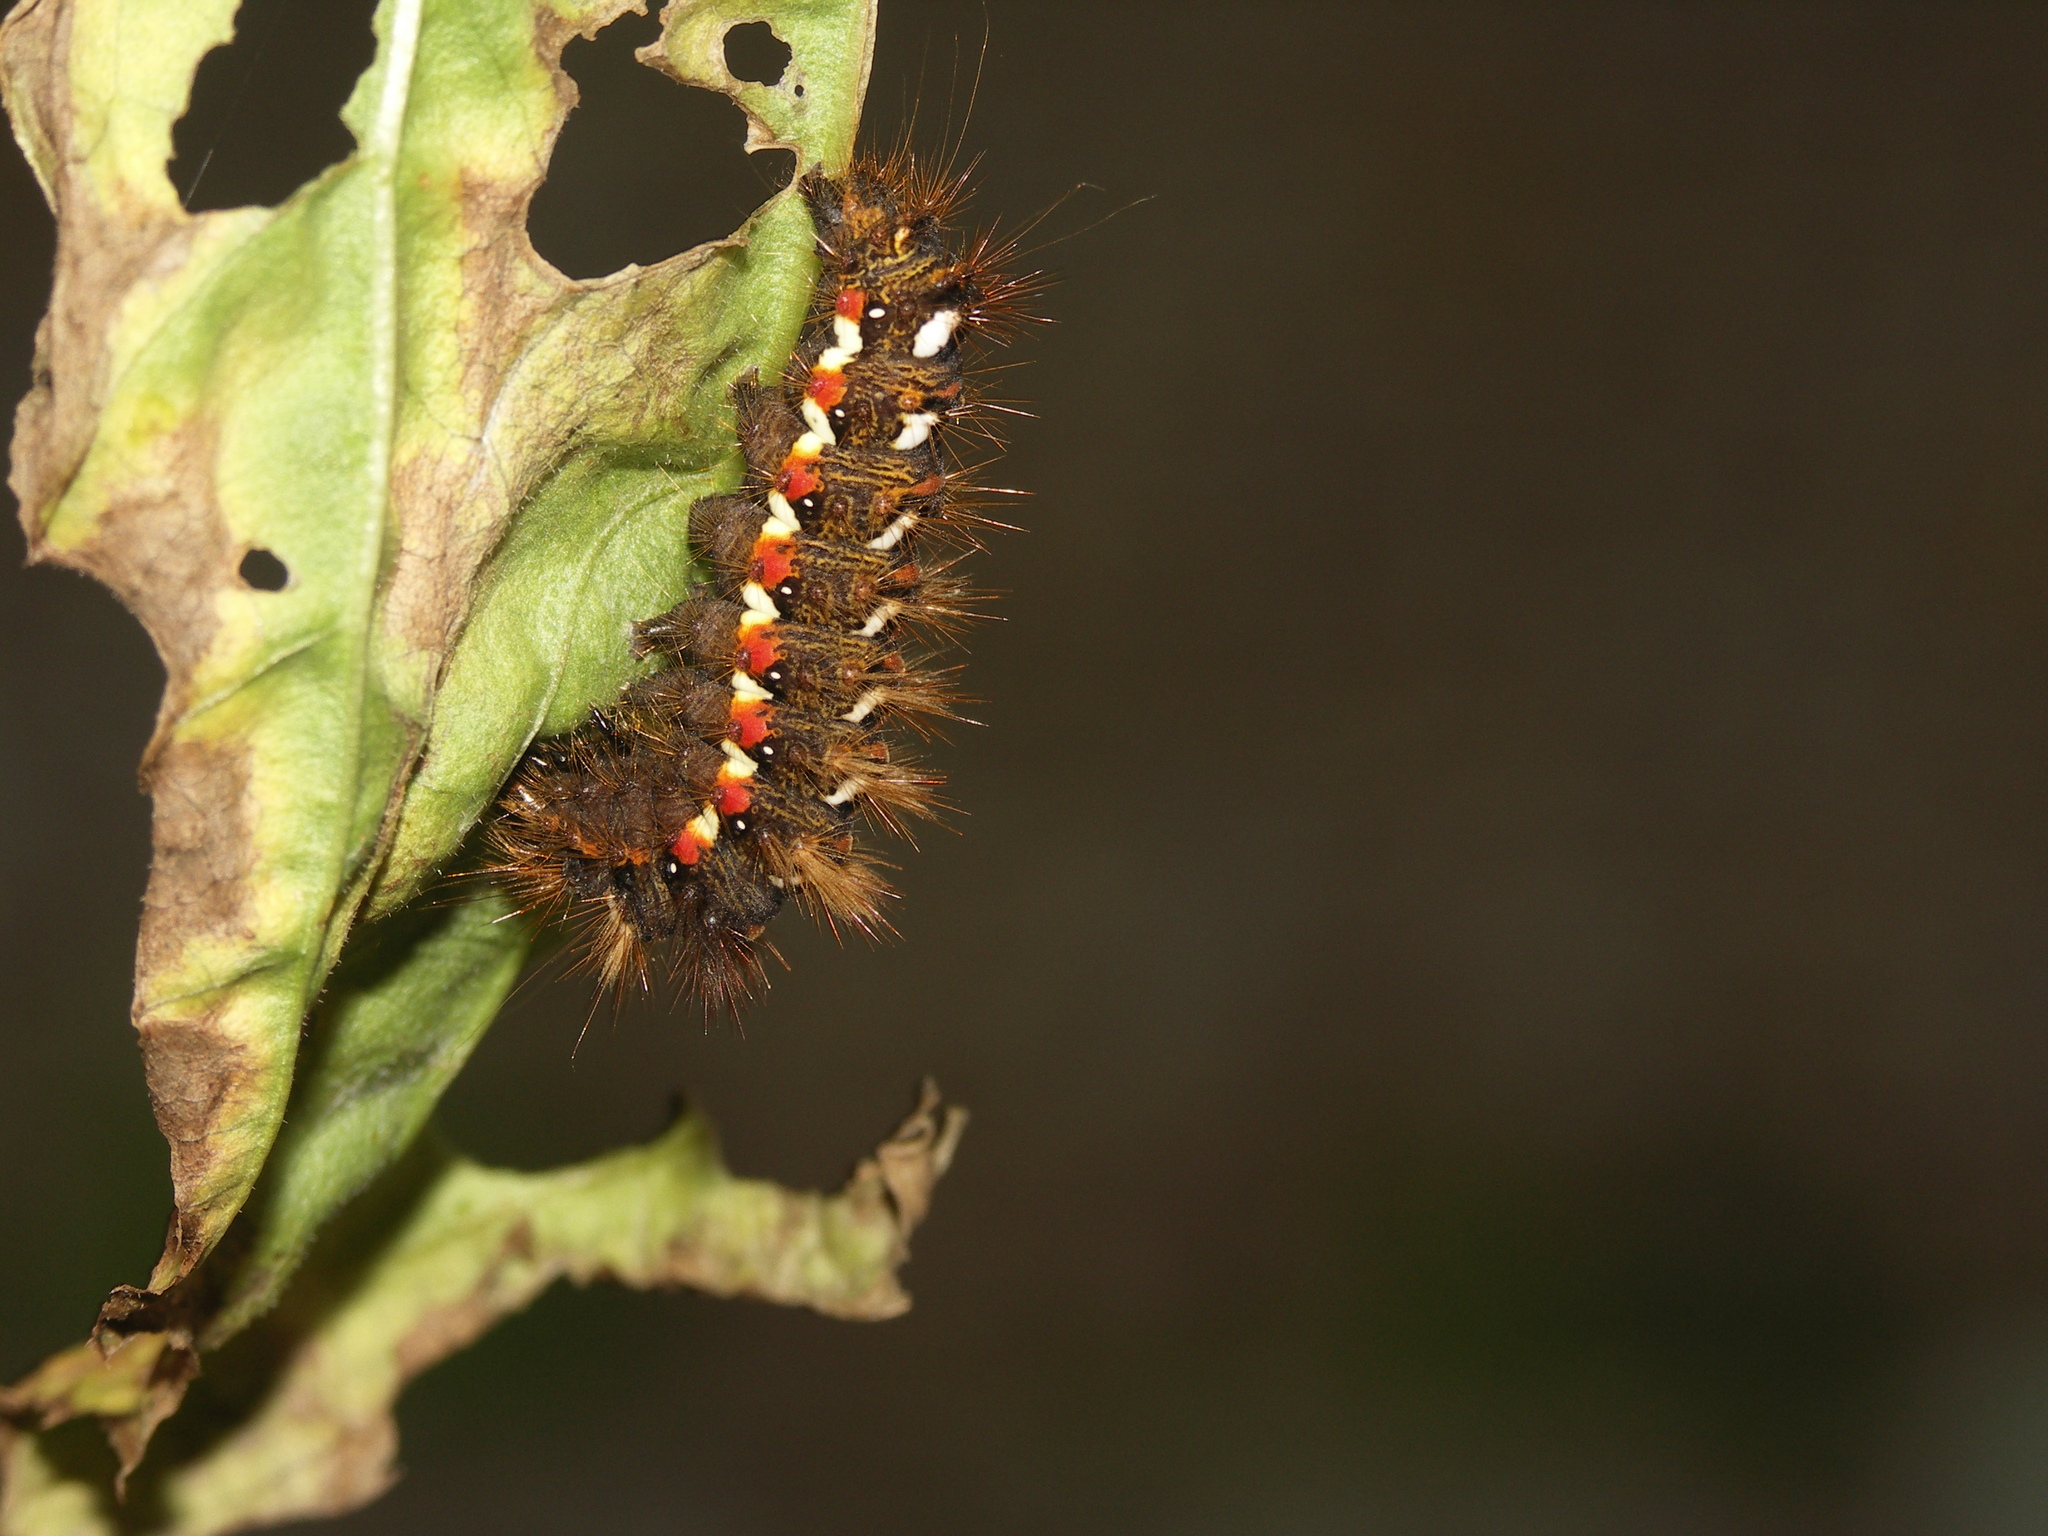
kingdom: Animalia
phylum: Arthropoda
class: Insecta
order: Lepidoptera
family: Noctuidae
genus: Acronicta
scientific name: Acronicta rumicis
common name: Knot grass
